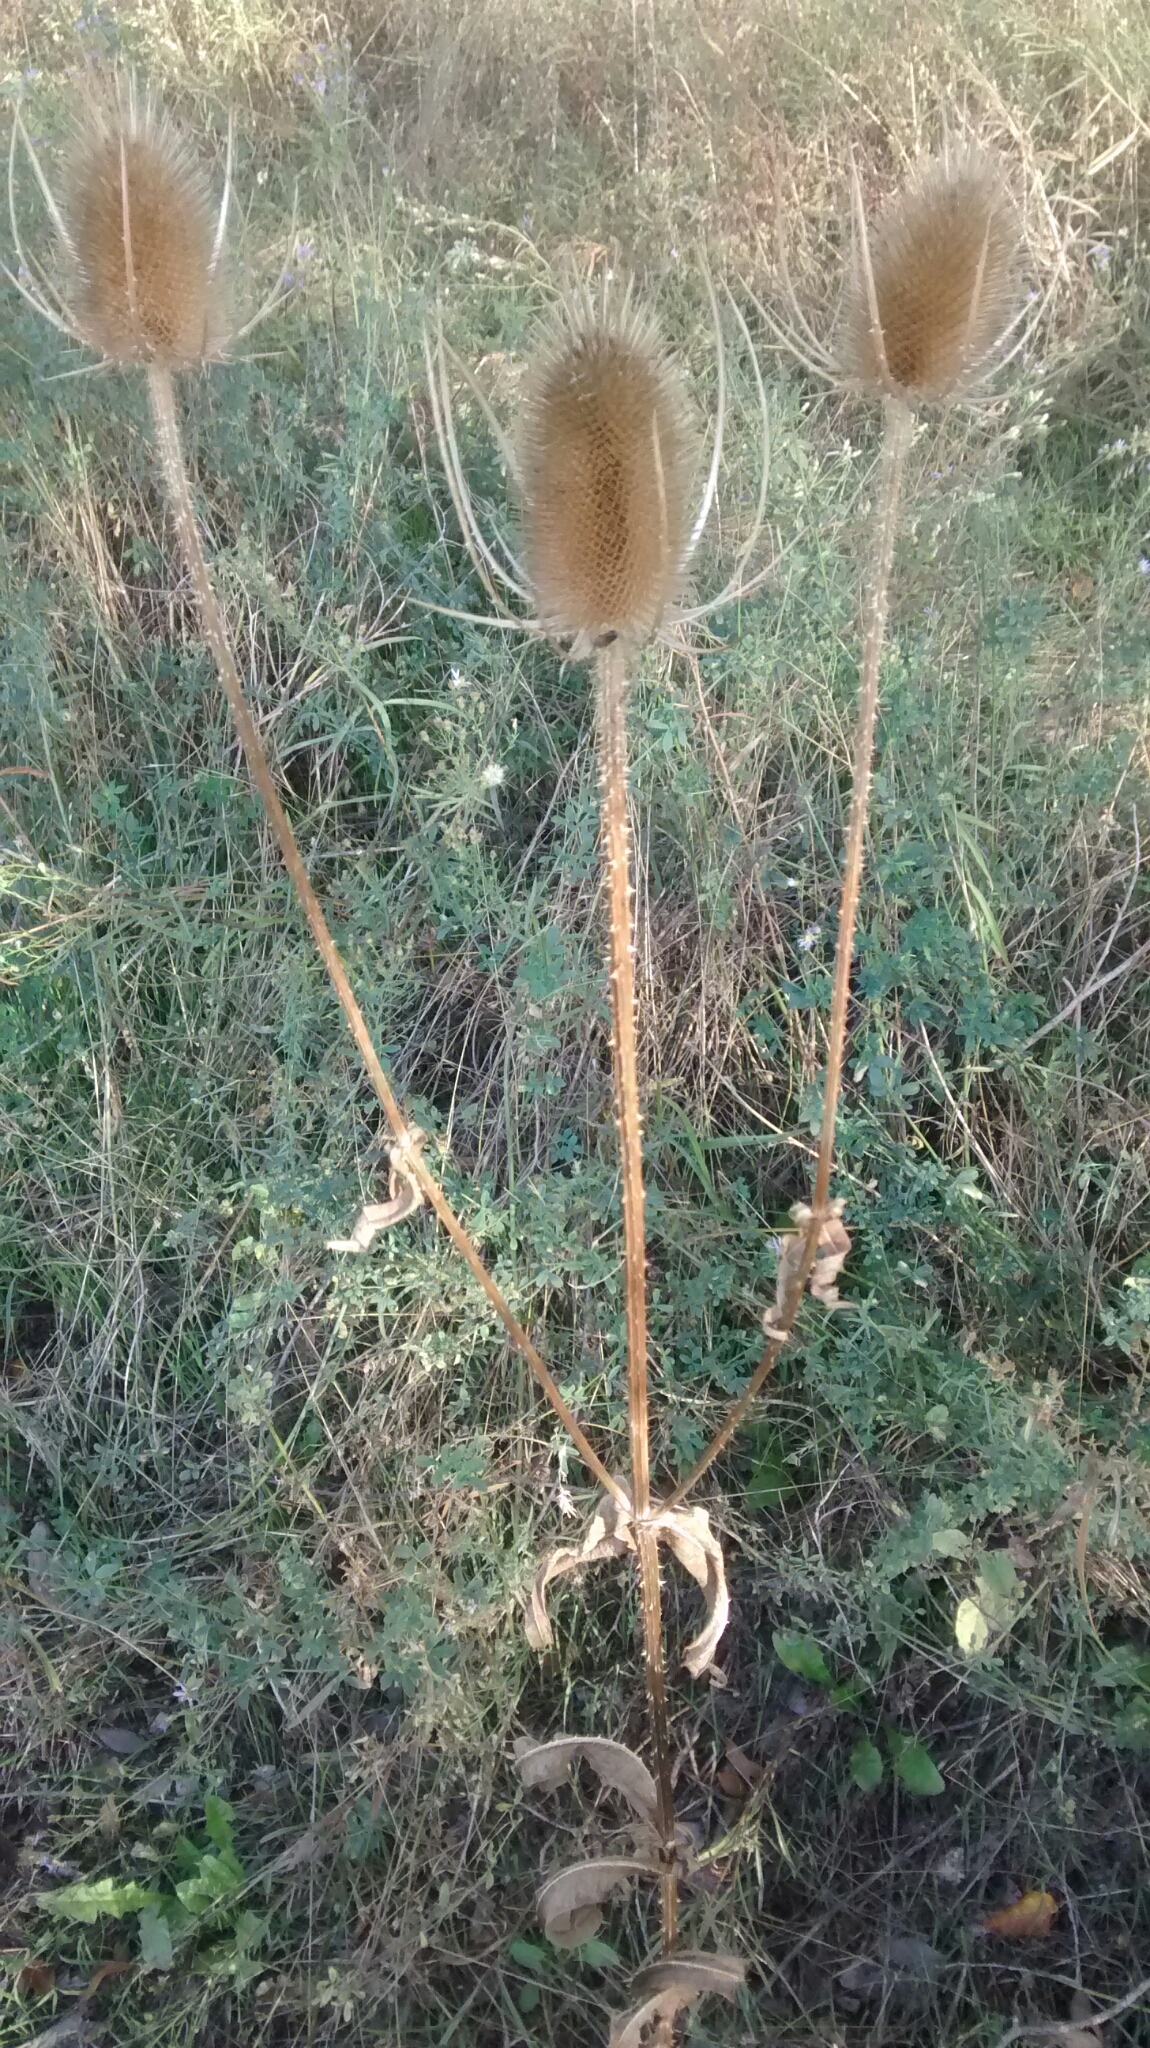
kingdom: Plantae
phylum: Tracheophyta
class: Magnoliopsida
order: Dipsacales
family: Caprifoliaceae
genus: Dipsacus
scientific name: Dipsacus fullonum
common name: Teasel
